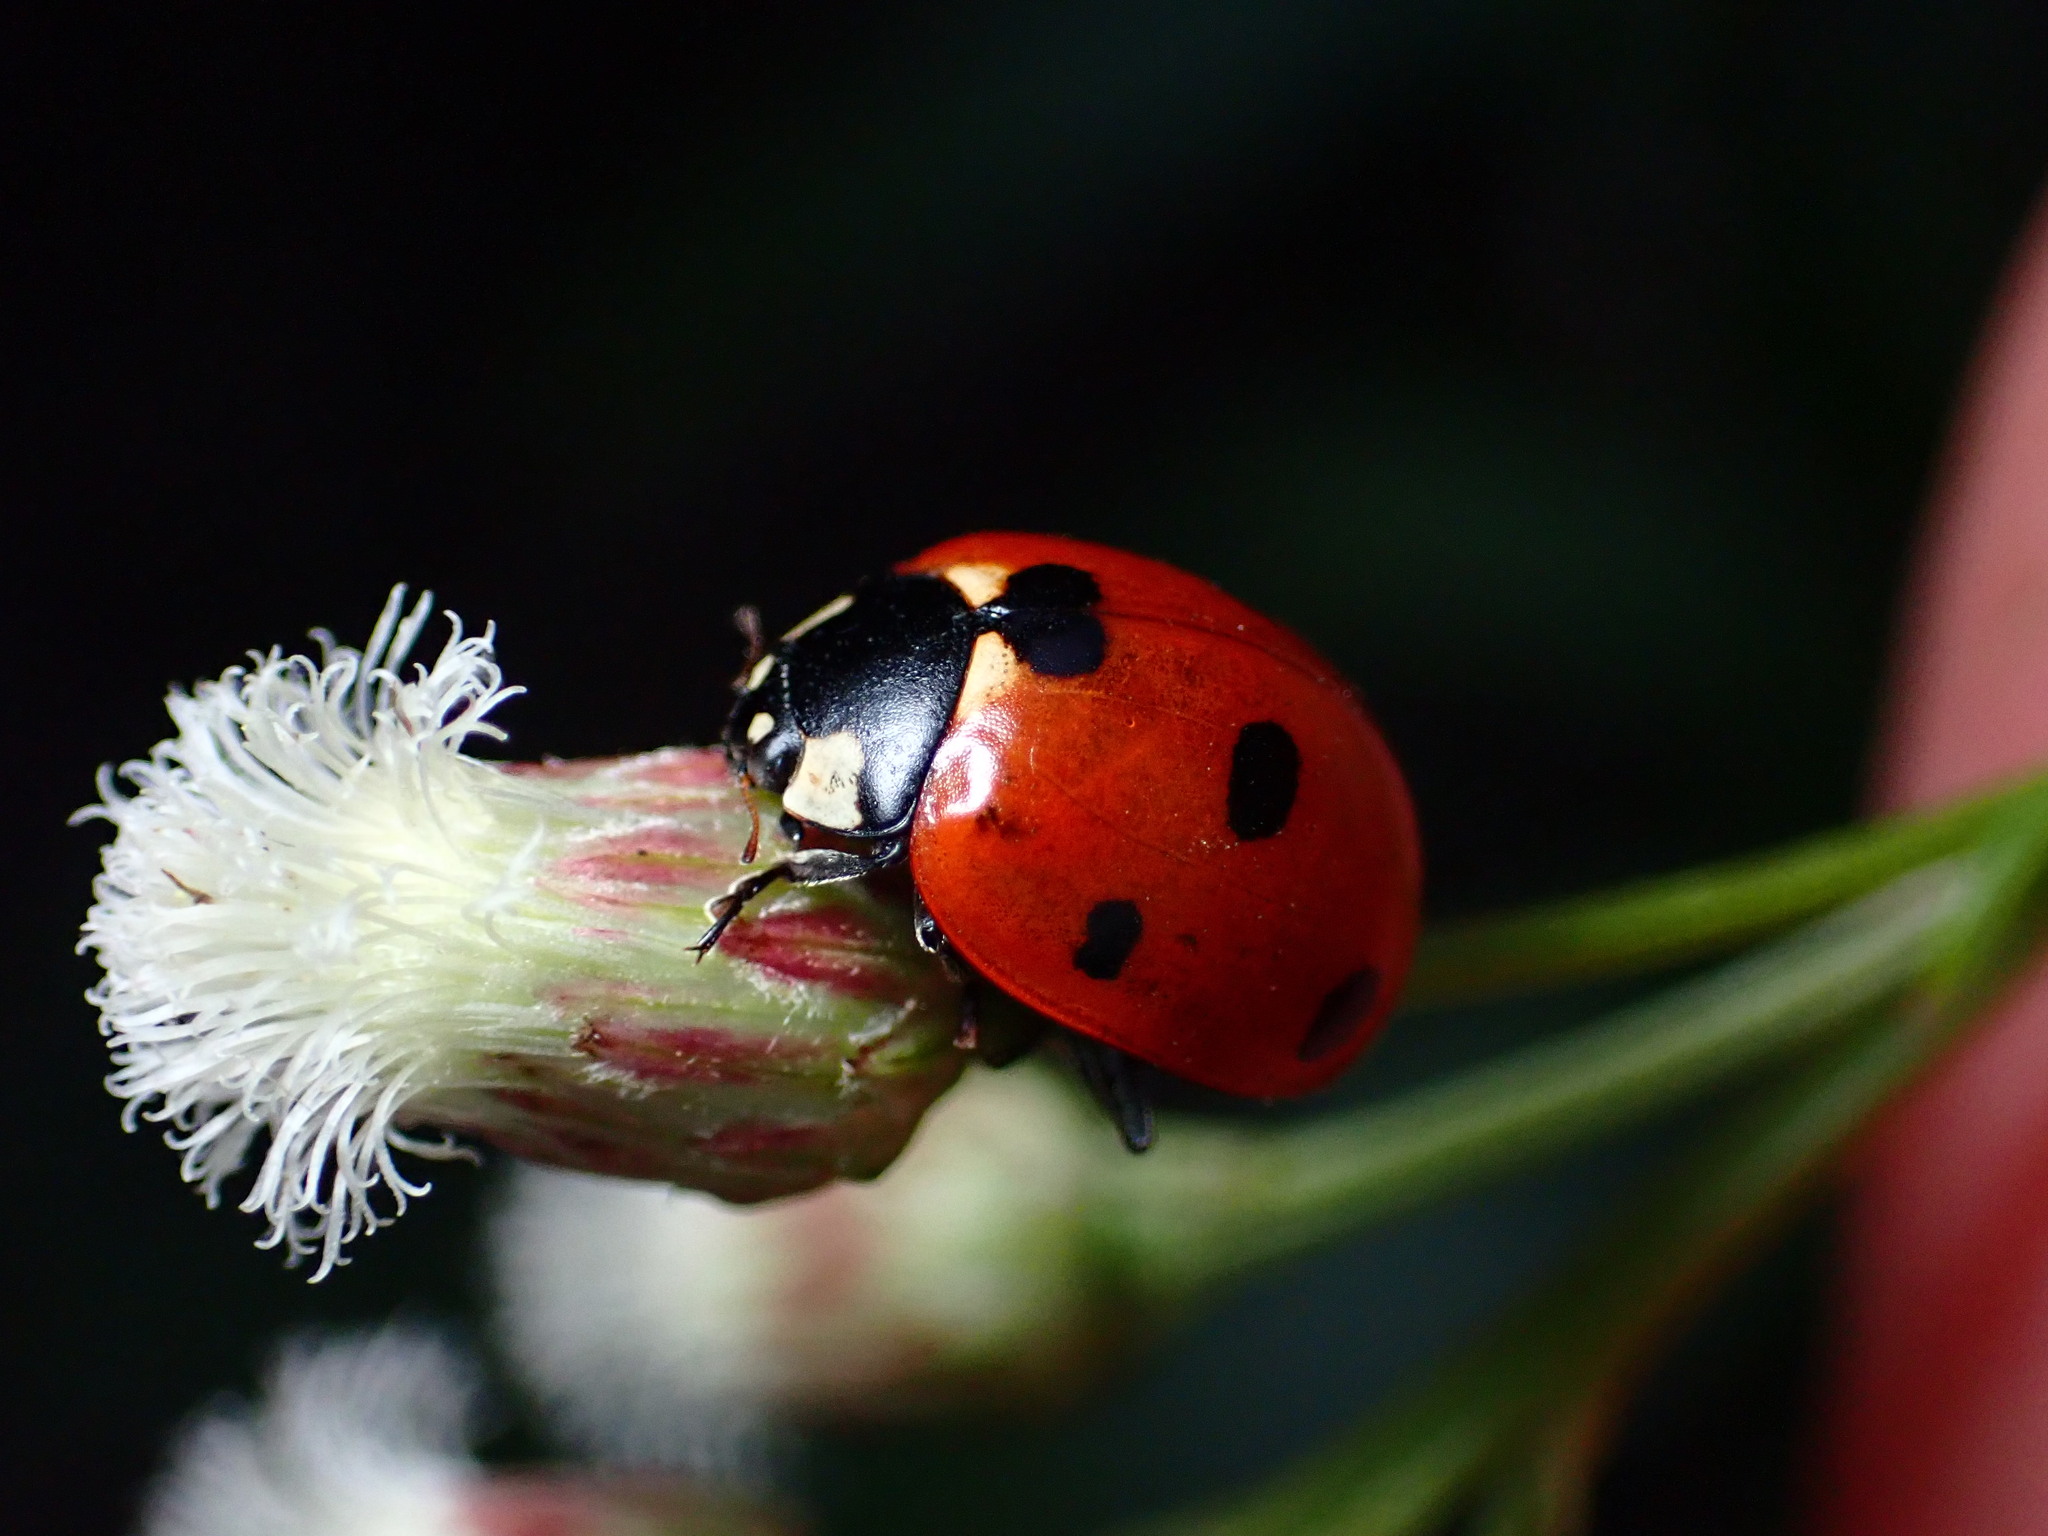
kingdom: Animalia
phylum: Arthropoda
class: Insecta
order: Coleoptera
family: Coccinellidae
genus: Coccinella
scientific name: Coccinella septempunctata
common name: Sevenspotted lady beetle
